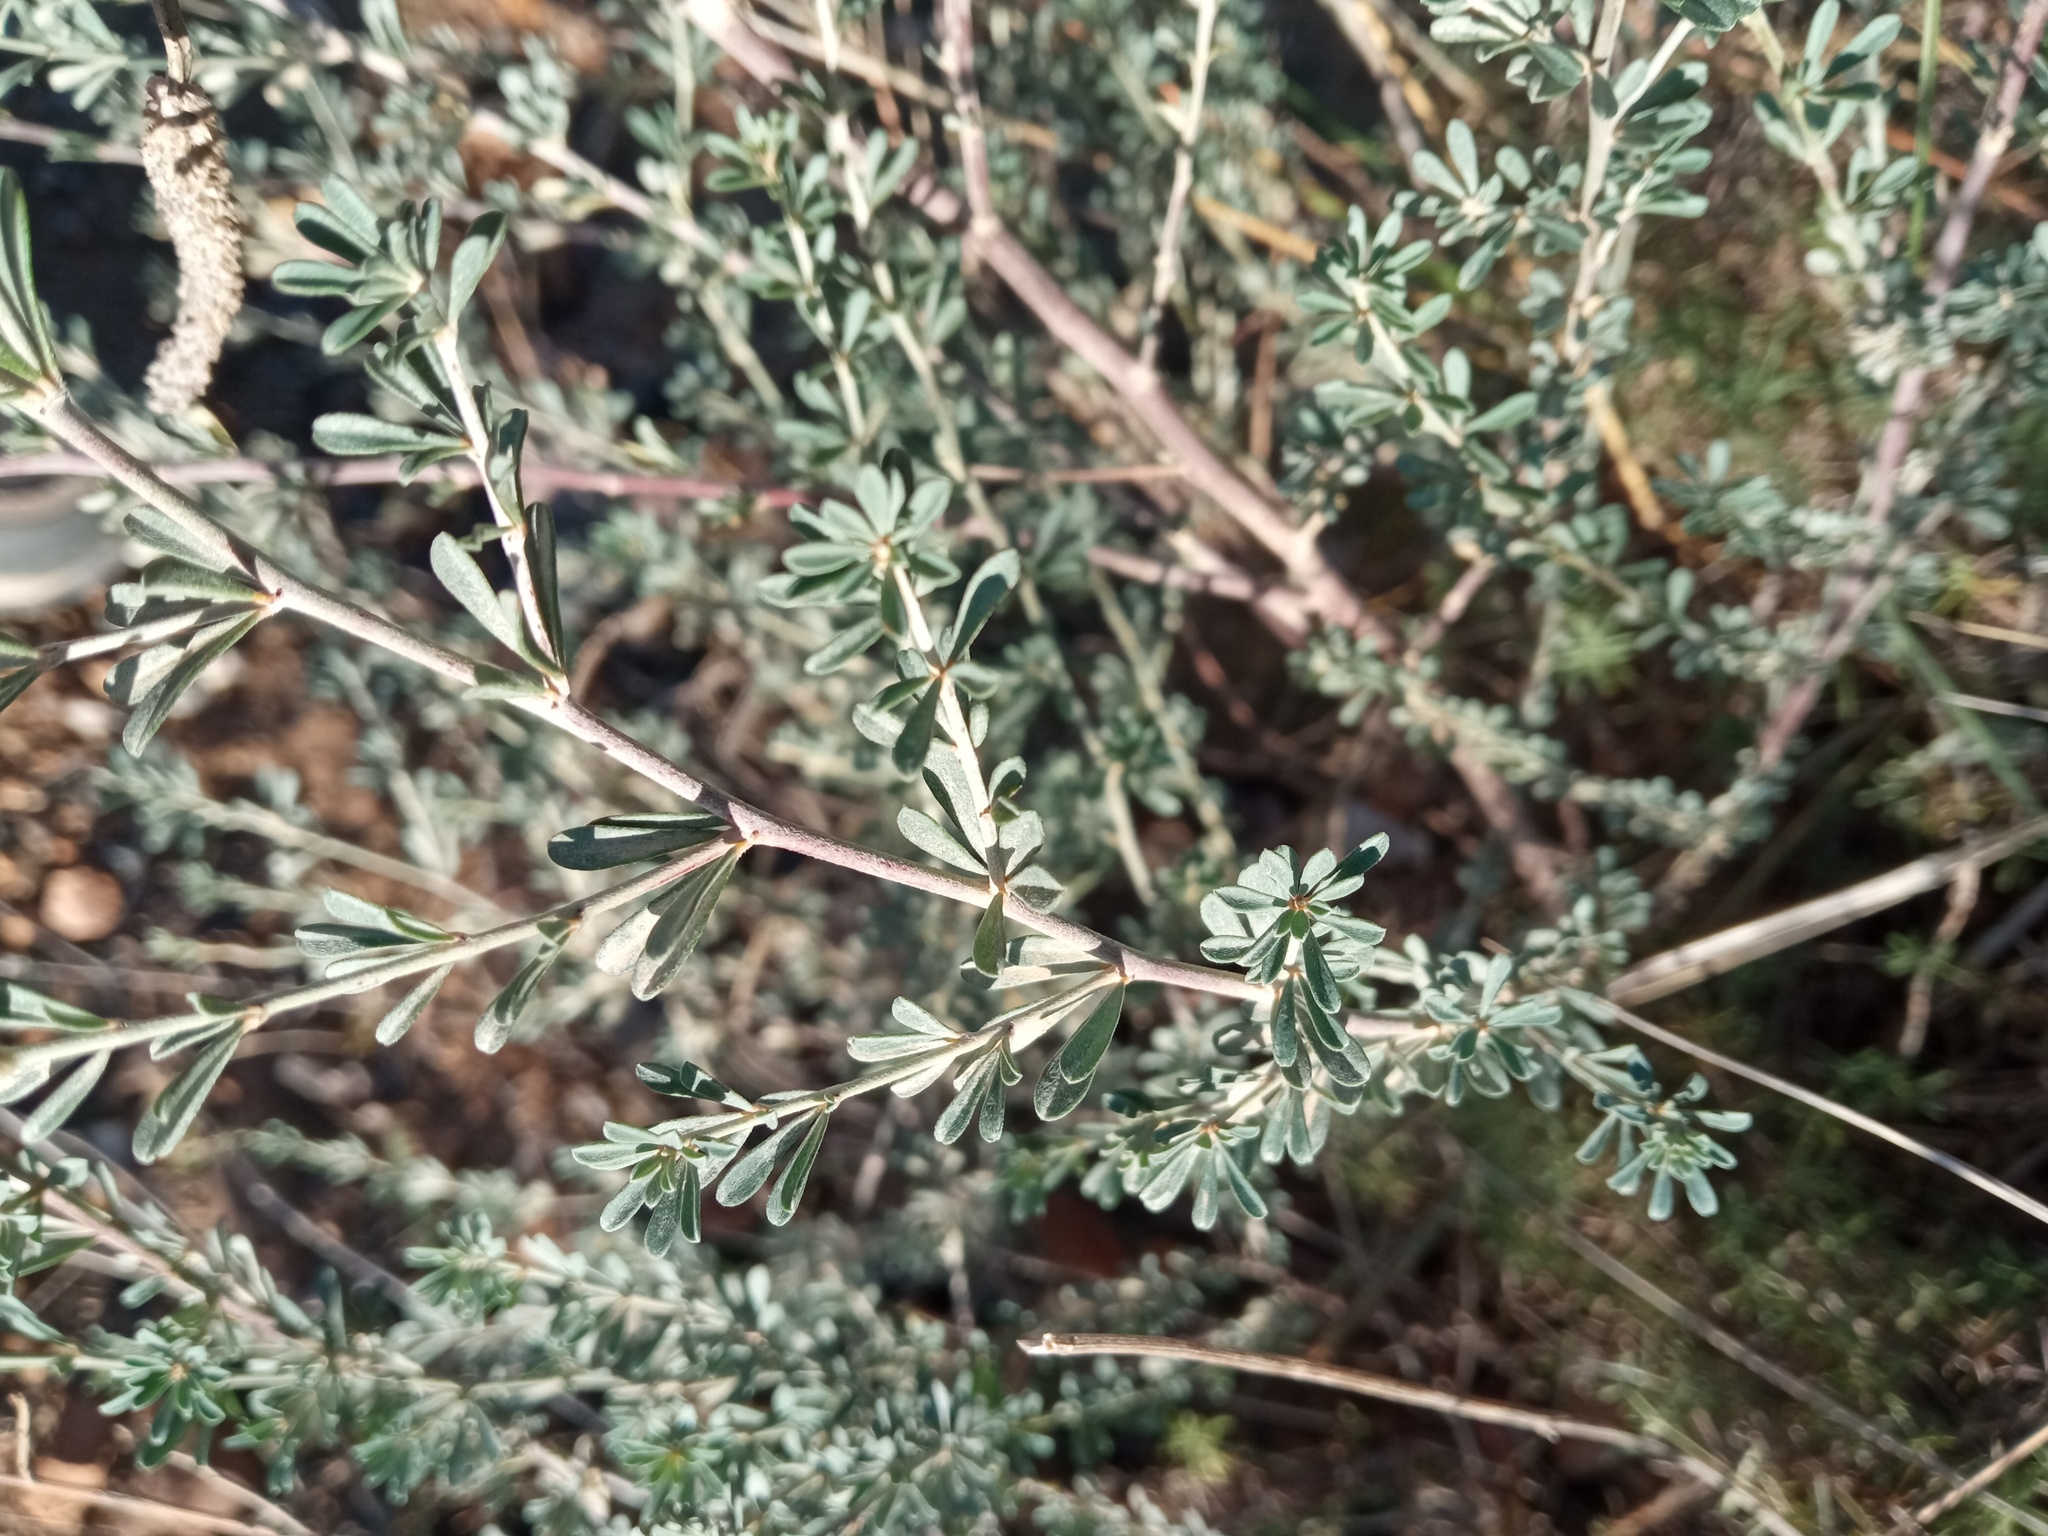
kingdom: Plantae
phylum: Tracheophyta
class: Magnoliopsida
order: Fabales
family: Fabaceae
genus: Lotus
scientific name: Lotus dorycnium
